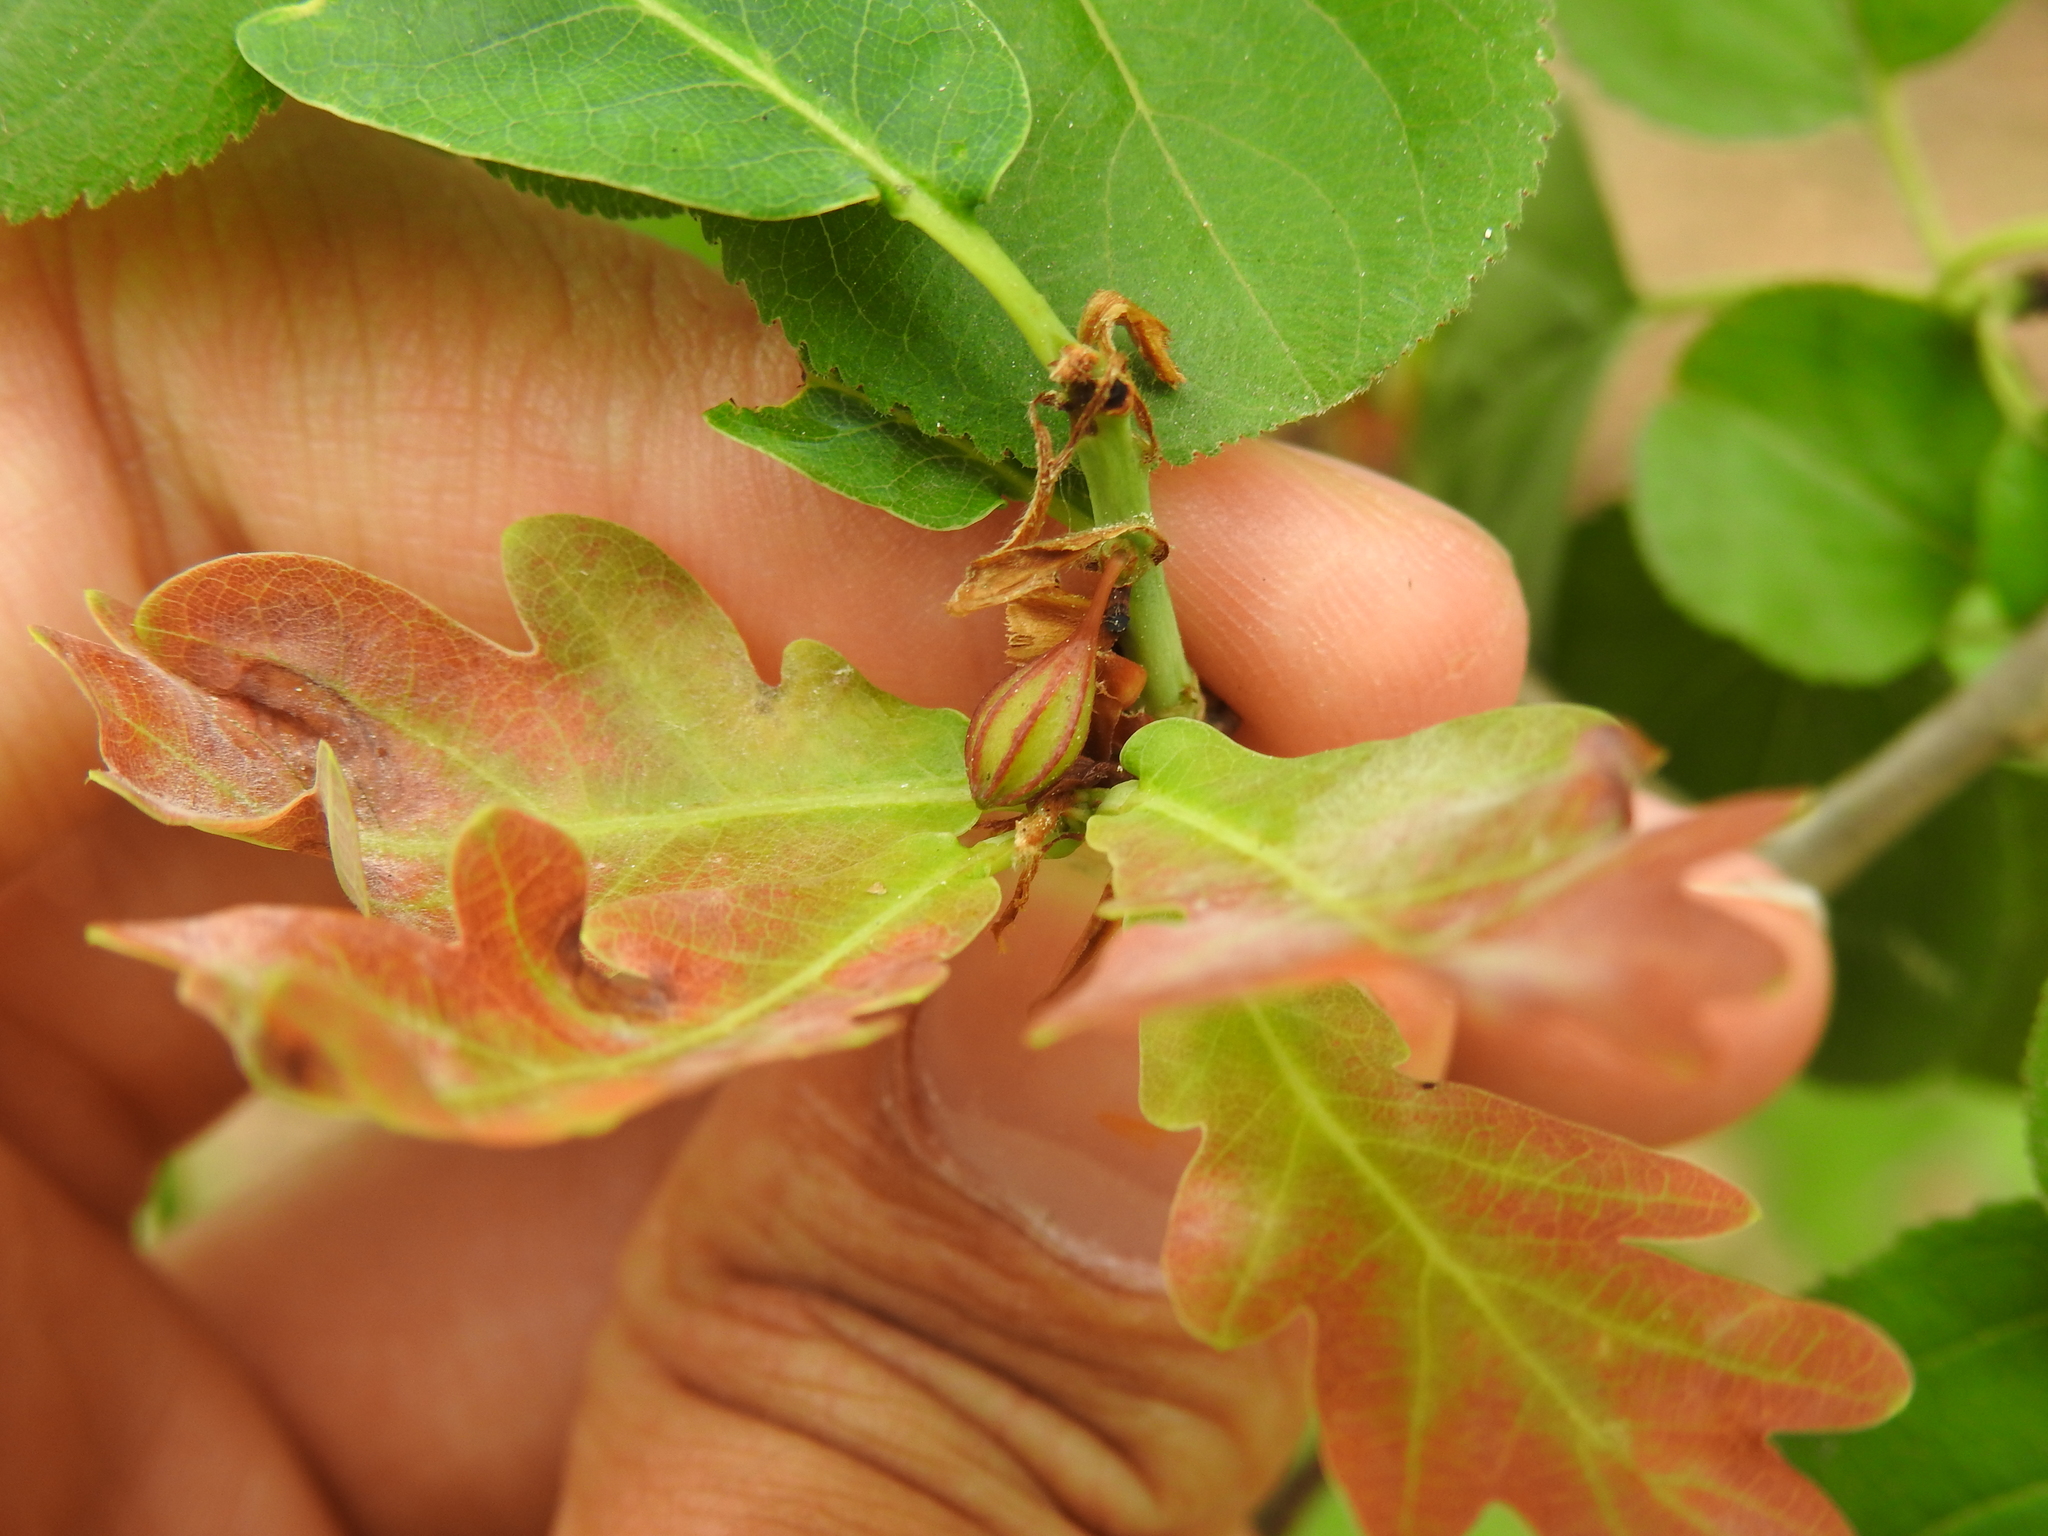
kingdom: Animalia
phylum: Arthropoda
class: Insecta
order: Hymenoptera
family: Cynipidae
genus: Andricus
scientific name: Andricus callidoma
